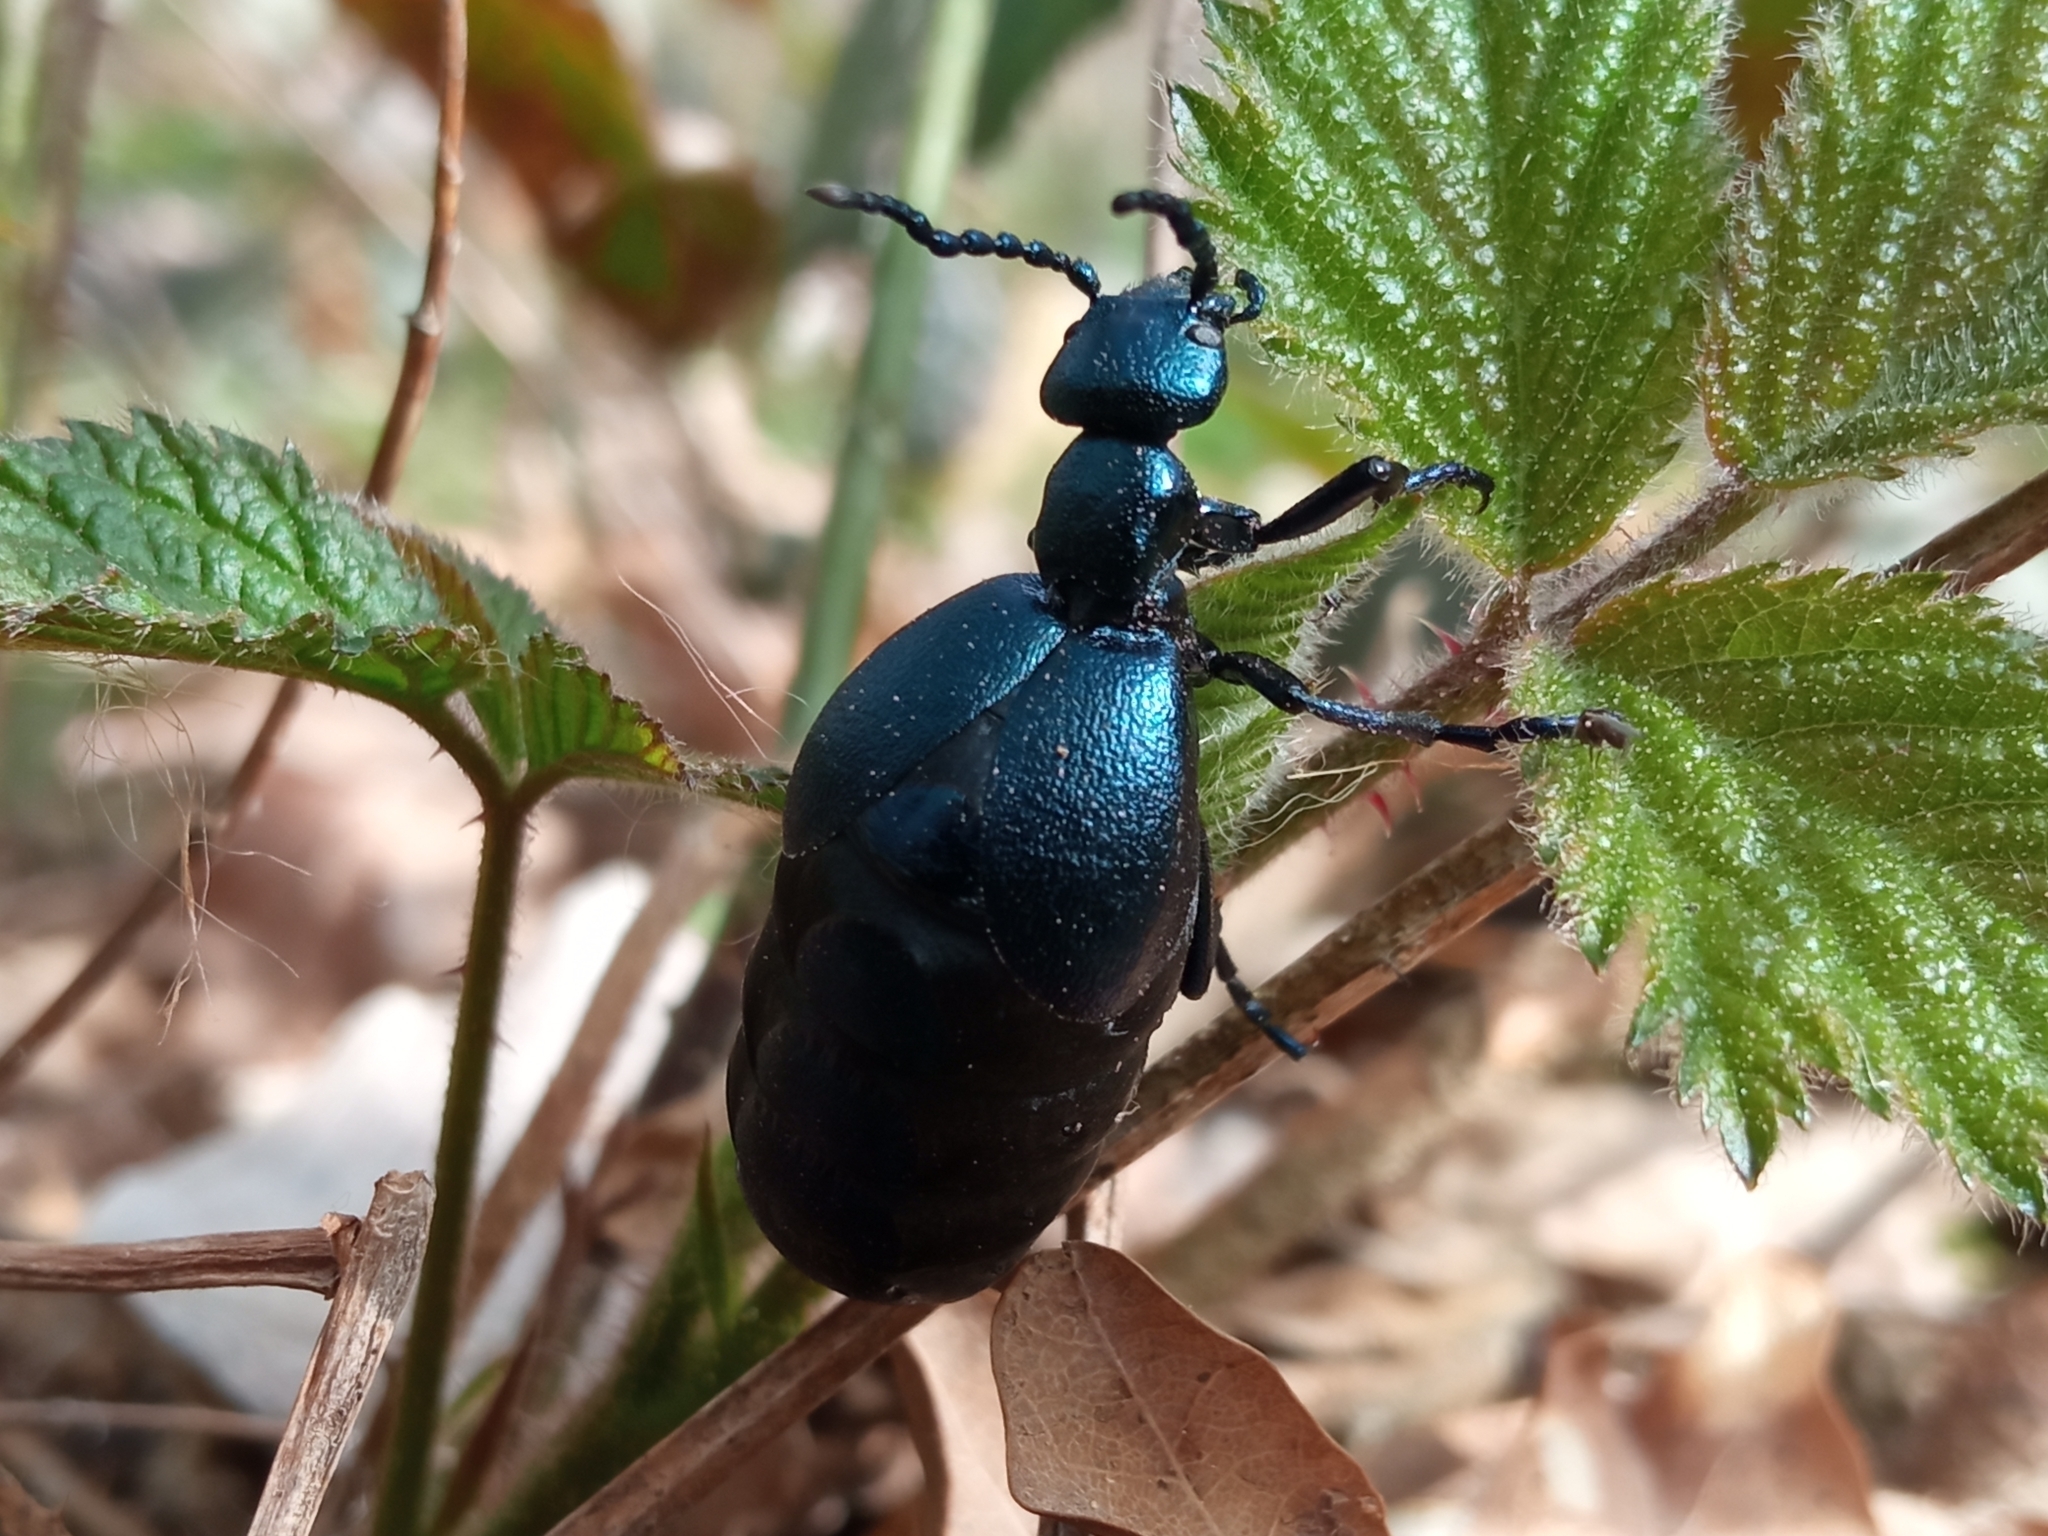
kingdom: Animalia
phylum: Arthropoda
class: Insecta
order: Coleoptera
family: Meloidae
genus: Meloe
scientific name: Meloe violaceus
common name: Violet oil-beetle
